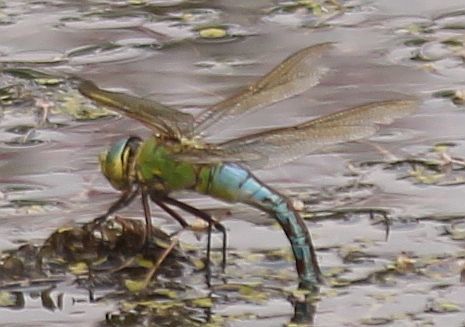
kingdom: Animalia
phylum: Arthropoda
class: Insecta
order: Odonata
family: Aeshnidae
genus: Anax
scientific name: Anax imperator
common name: Emperor dragonfly
